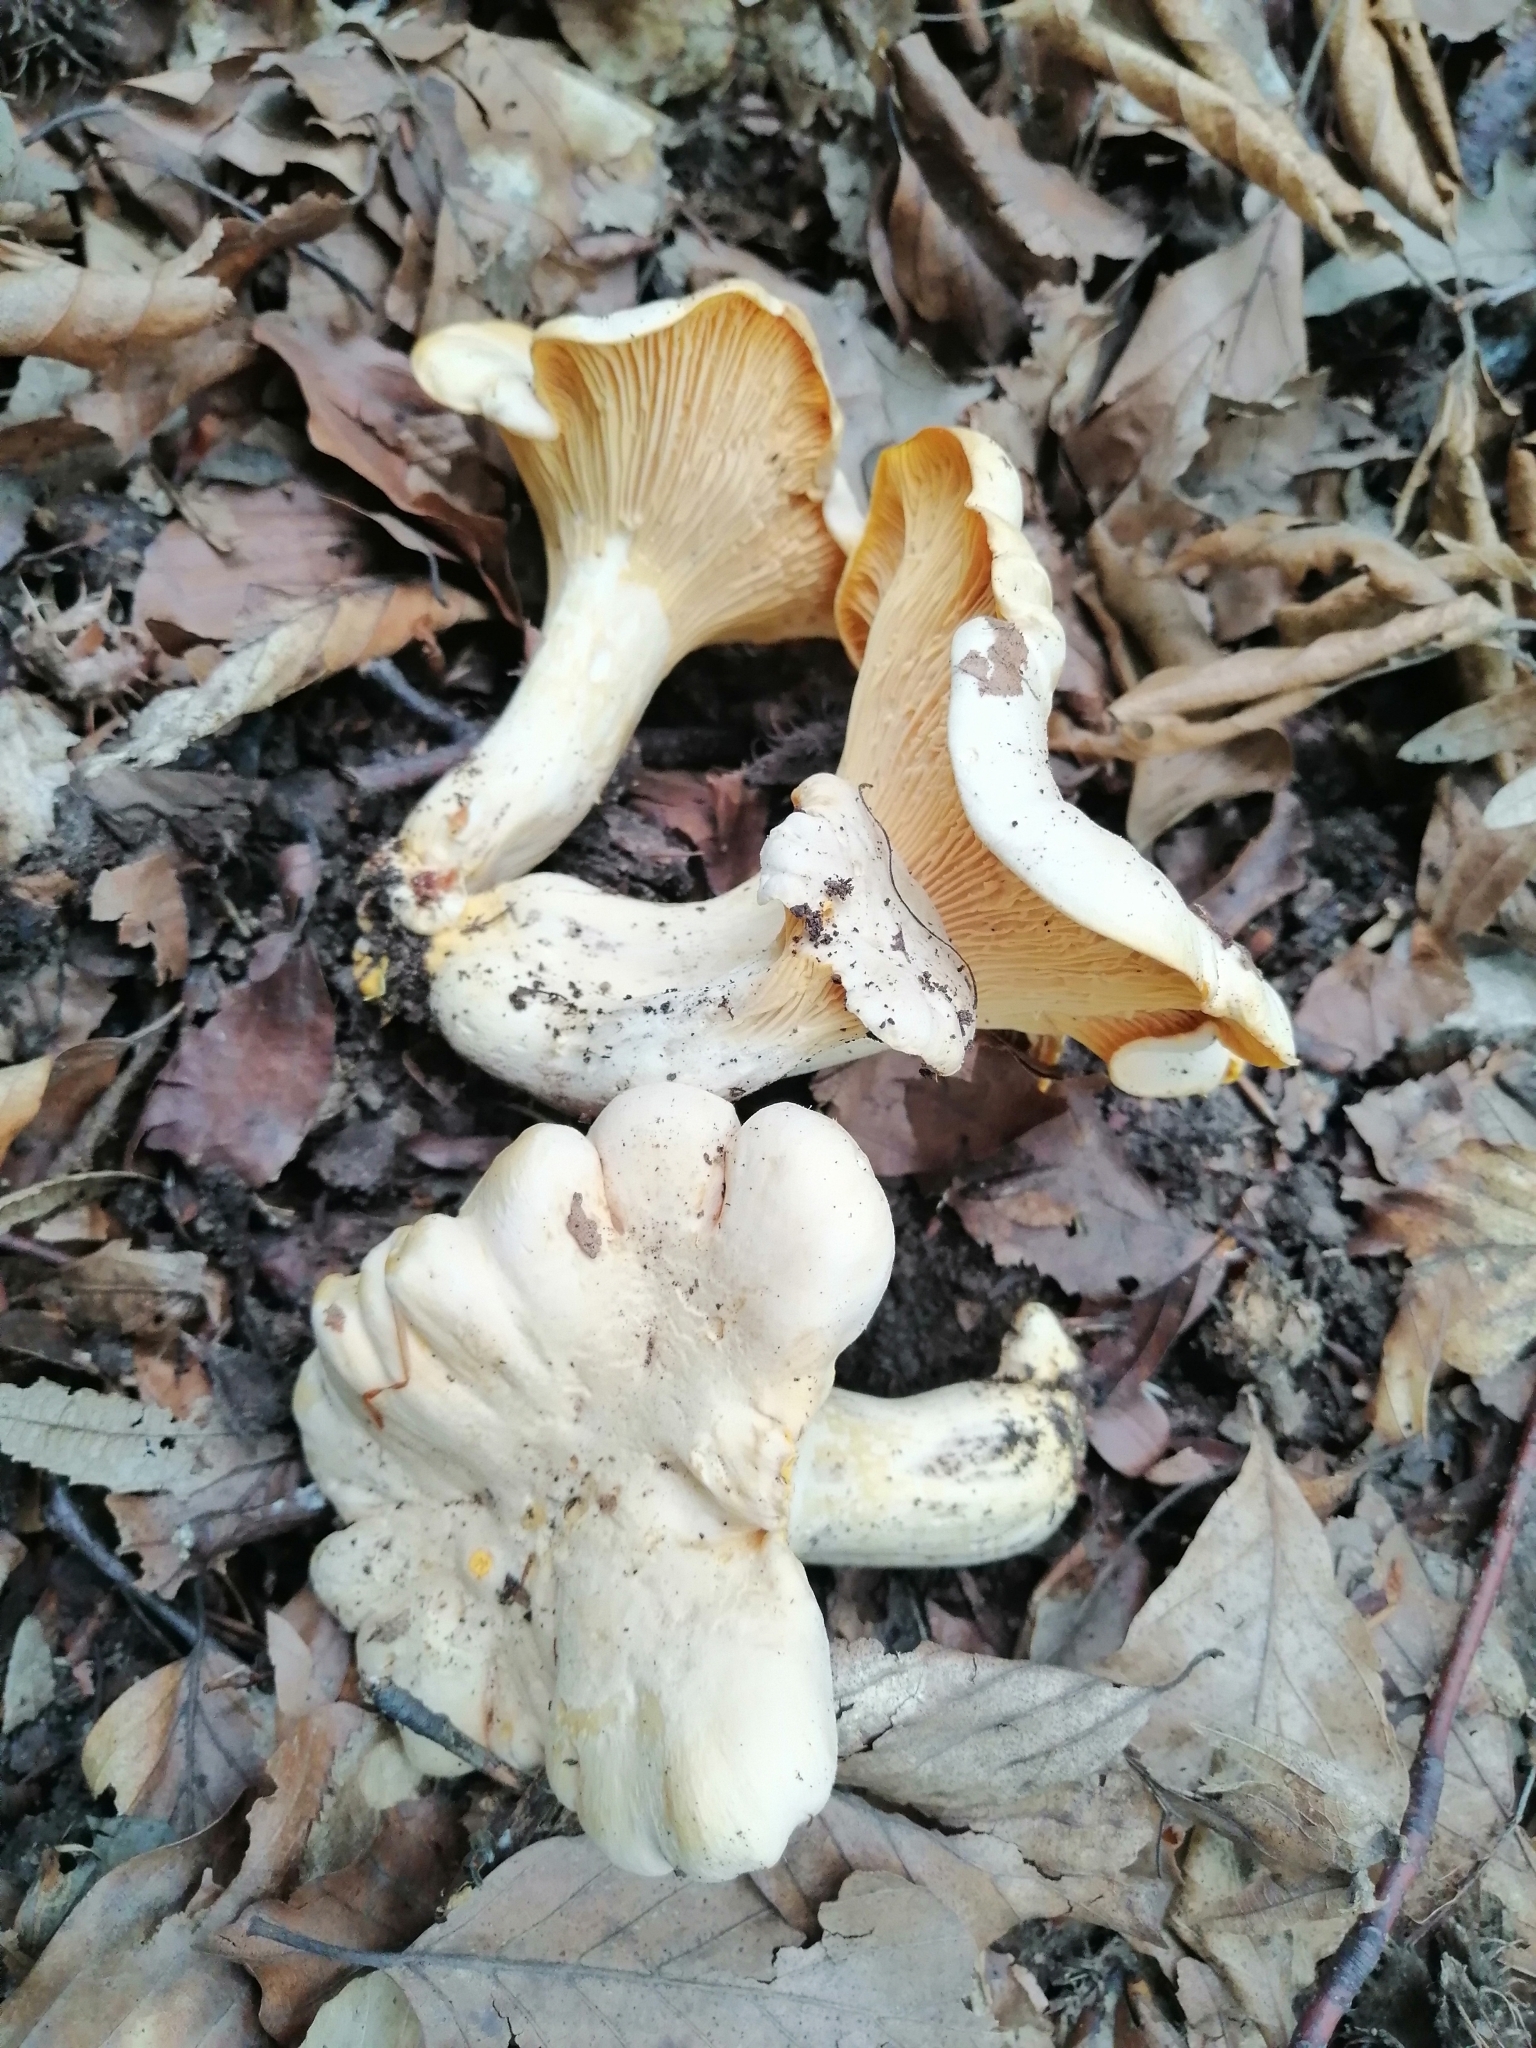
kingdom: Fungi
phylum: Basidiomycota
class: Agaricomycetes
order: Cantharellales
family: Hydnaceae
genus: Cantharellus
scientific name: Cantharellus pallens
